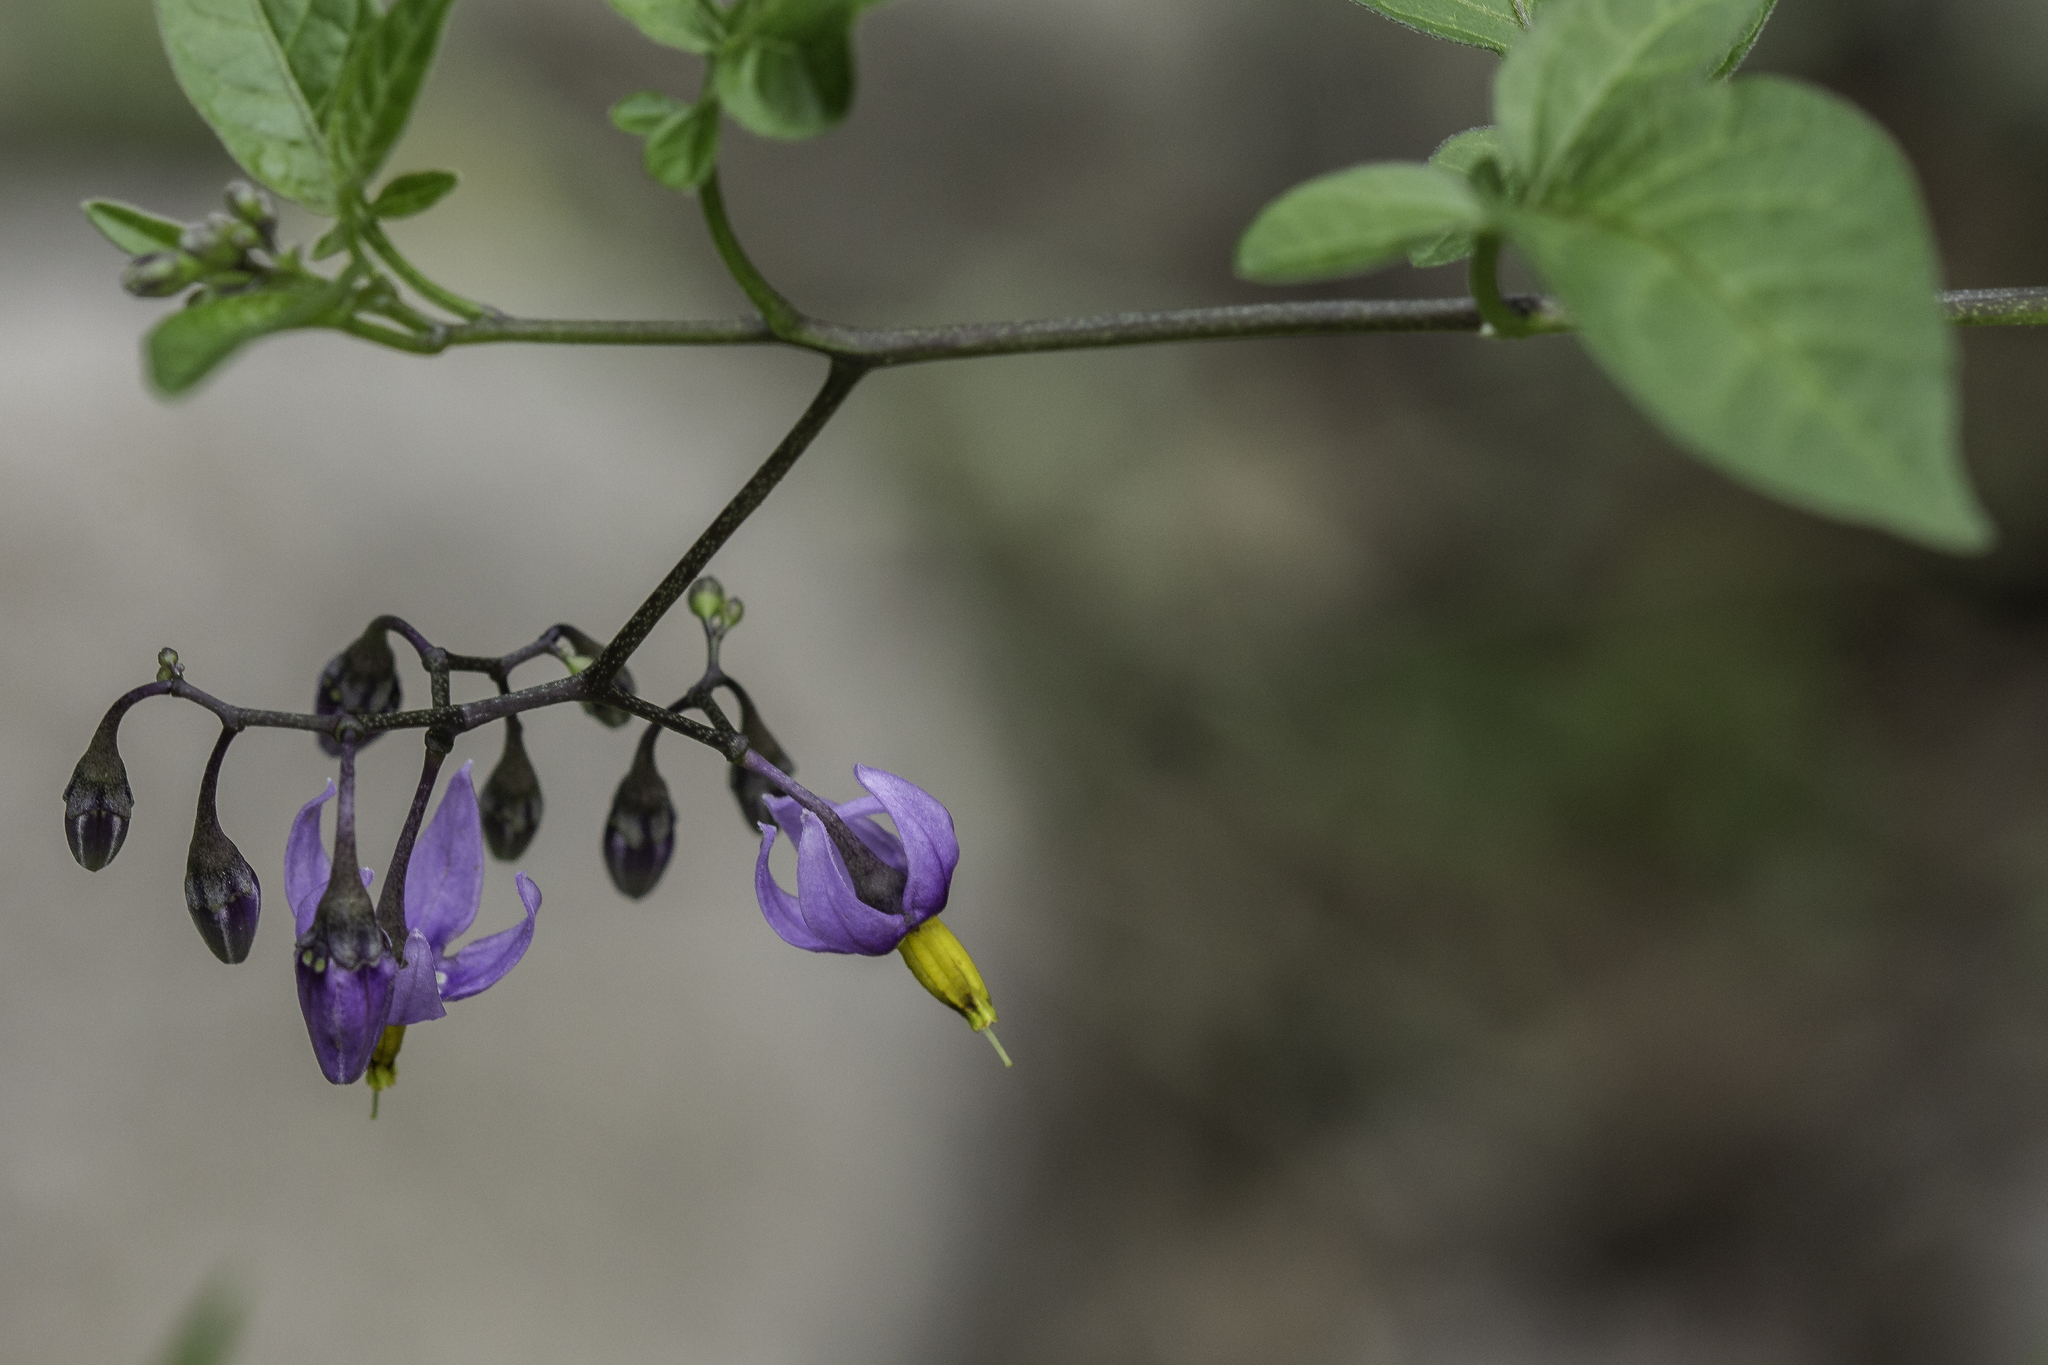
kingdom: Plantae
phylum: Tracheophyta
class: Magnoliopsida
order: Solanales
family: Solanaceae
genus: Solanum
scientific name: Solanum dulcamara
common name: Climbing nightshade
